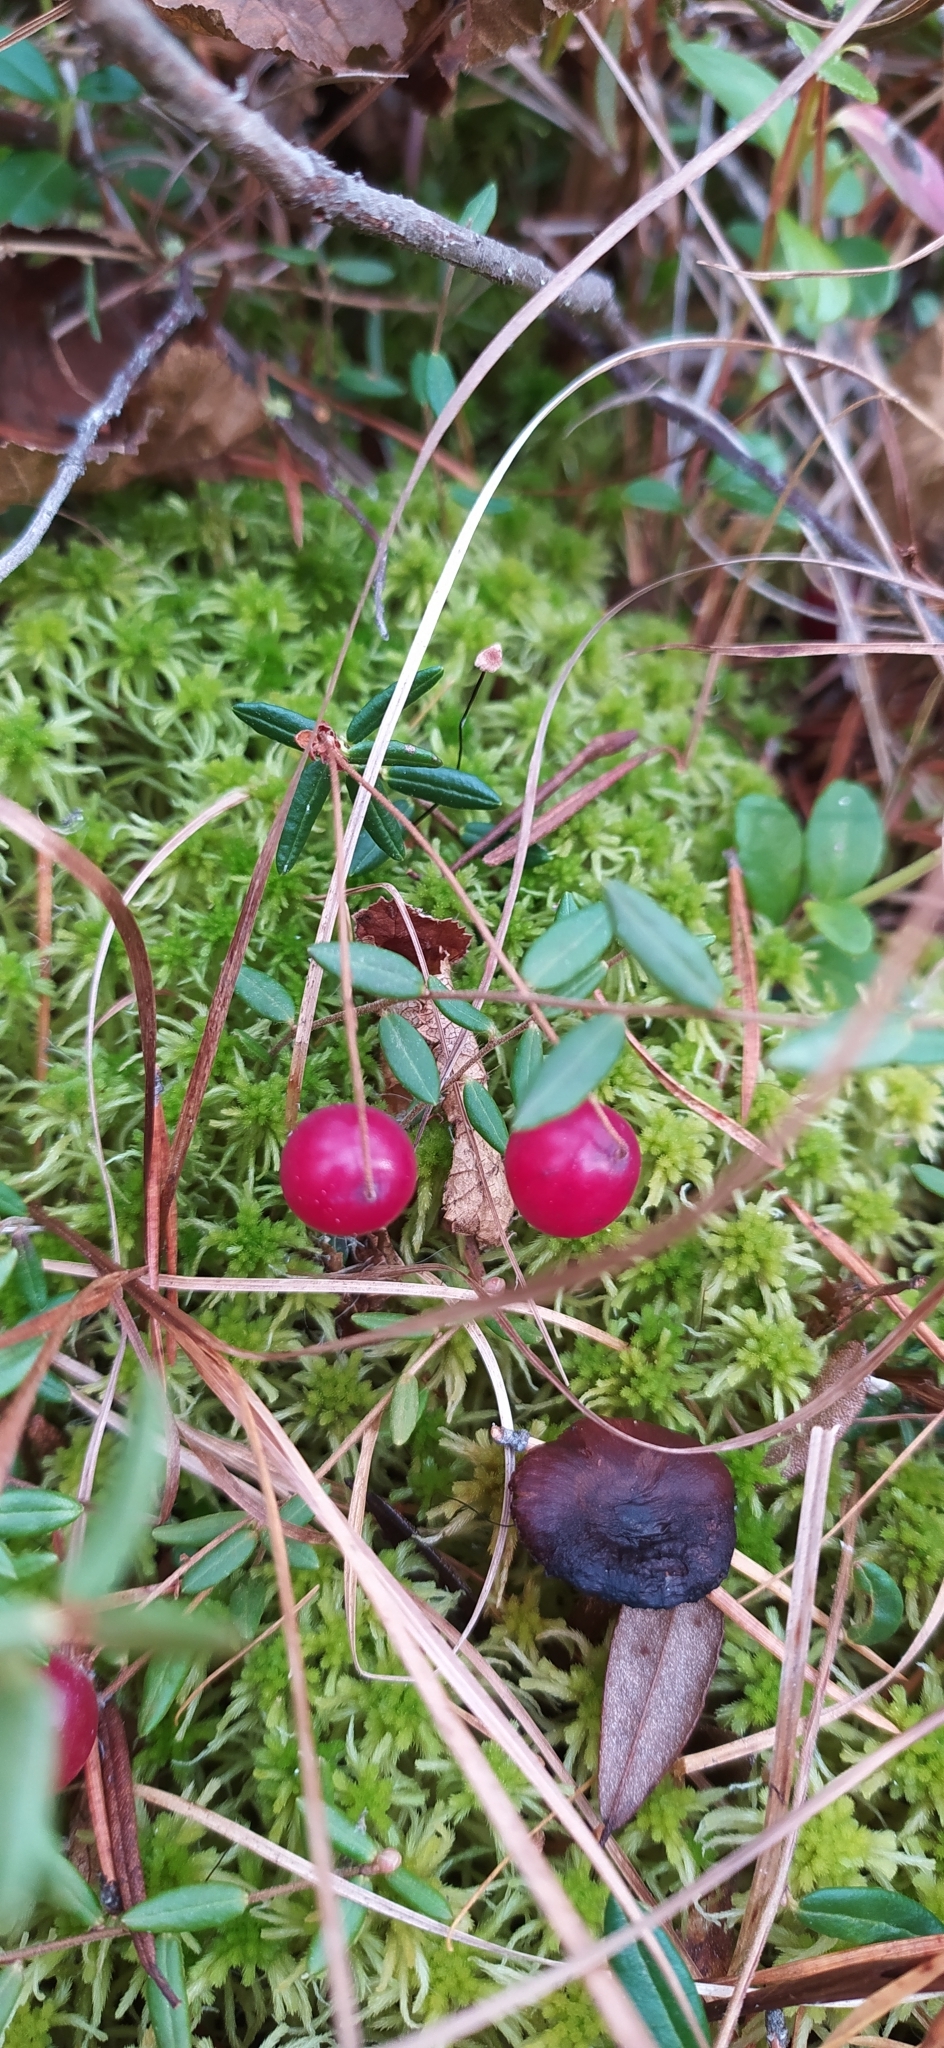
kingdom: Plantae
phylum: Tracheophyta
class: Magnoliopsida
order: Ericales
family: Ericaceae
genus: Vaccinium
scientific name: Vaccinium oxycoccos
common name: Cranberry
